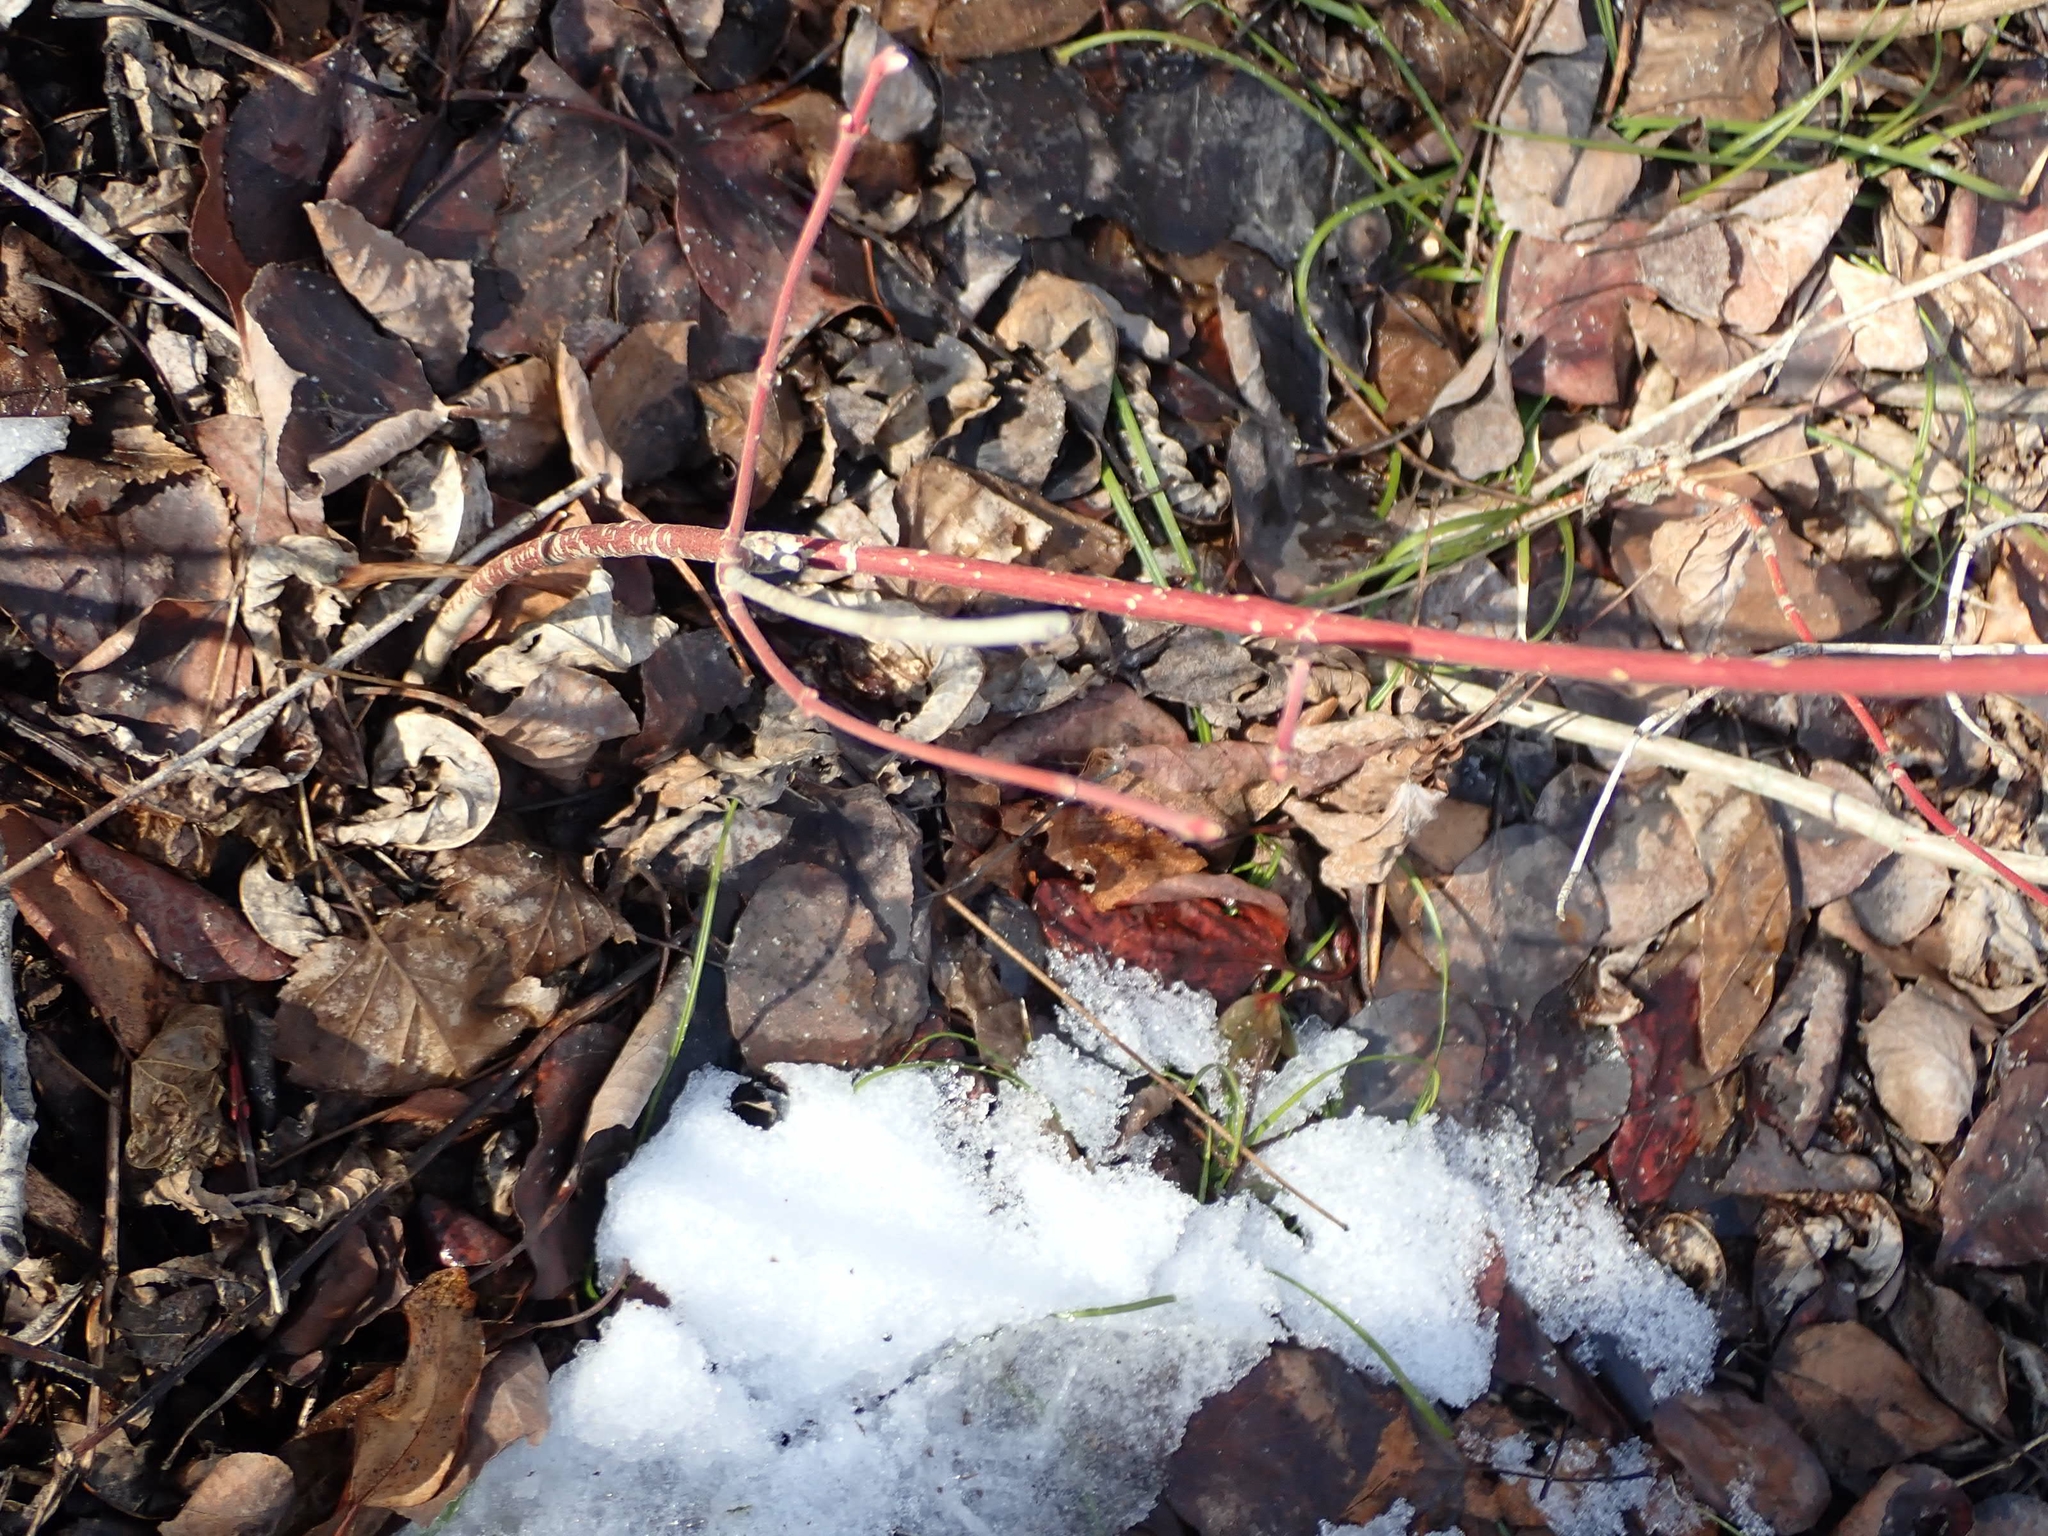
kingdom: Plantae
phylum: Tracheophyta
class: Magnoliopsida
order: Cornales
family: Cornaceae
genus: Cornus
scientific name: Cornus sericea
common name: Red-osier dogwood
